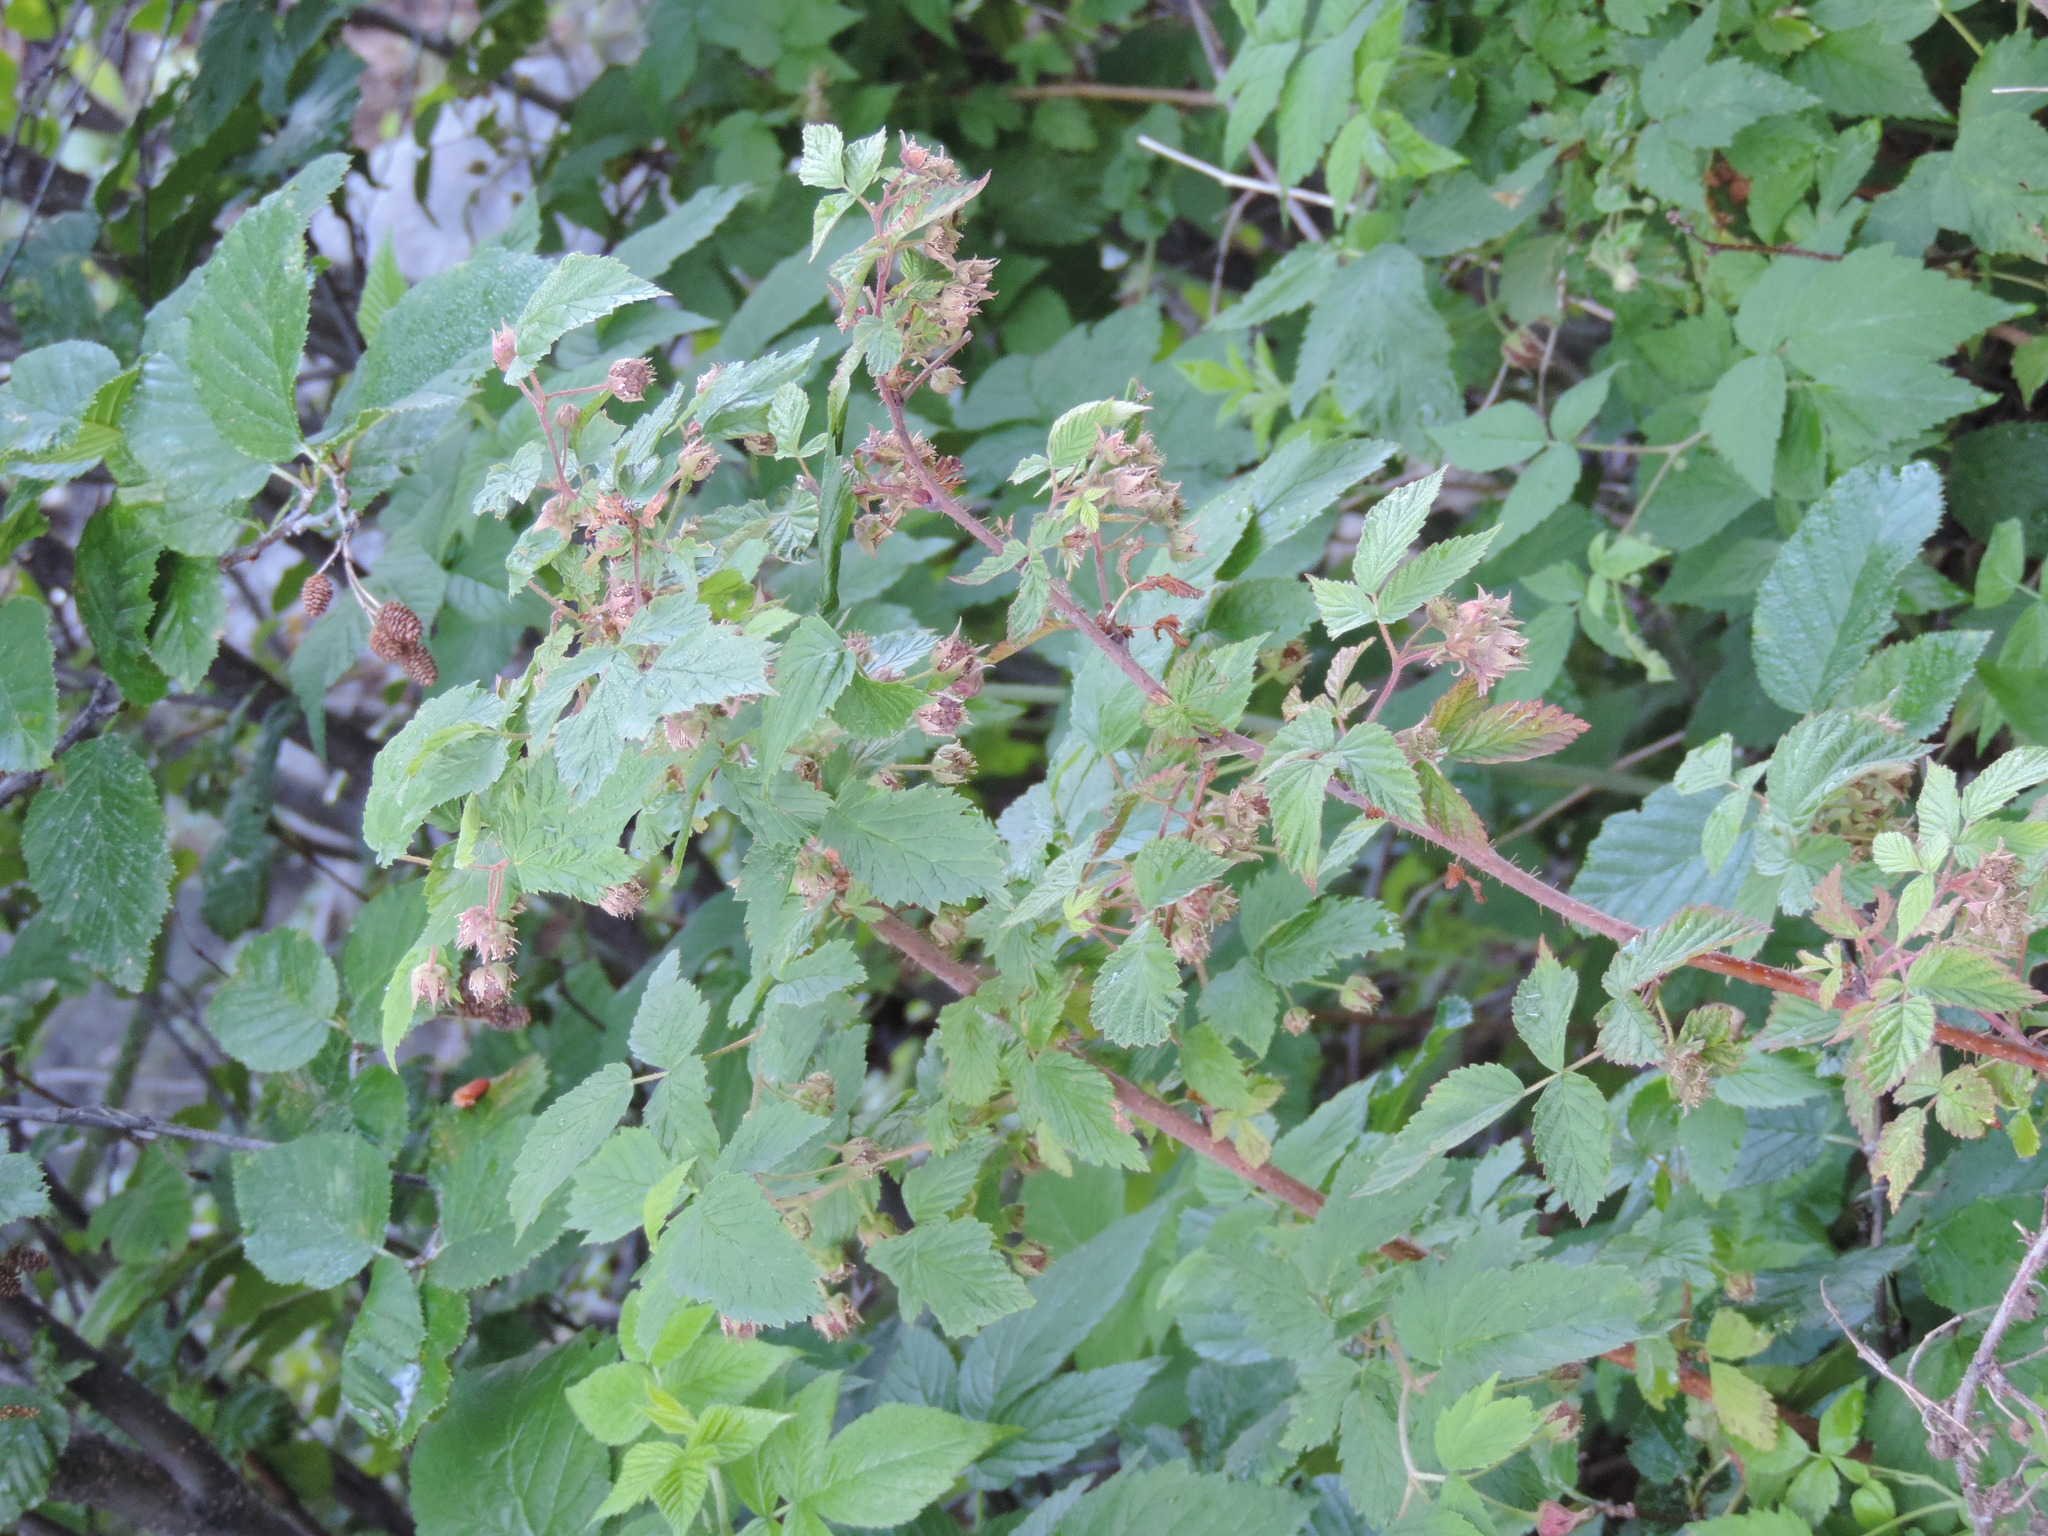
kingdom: Plantae
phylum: Tracheophyta
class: Magnoliopsida
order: Rosales
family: Rosaceae
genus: Rubus
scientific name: Rubus idaeus
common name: Raspberry
